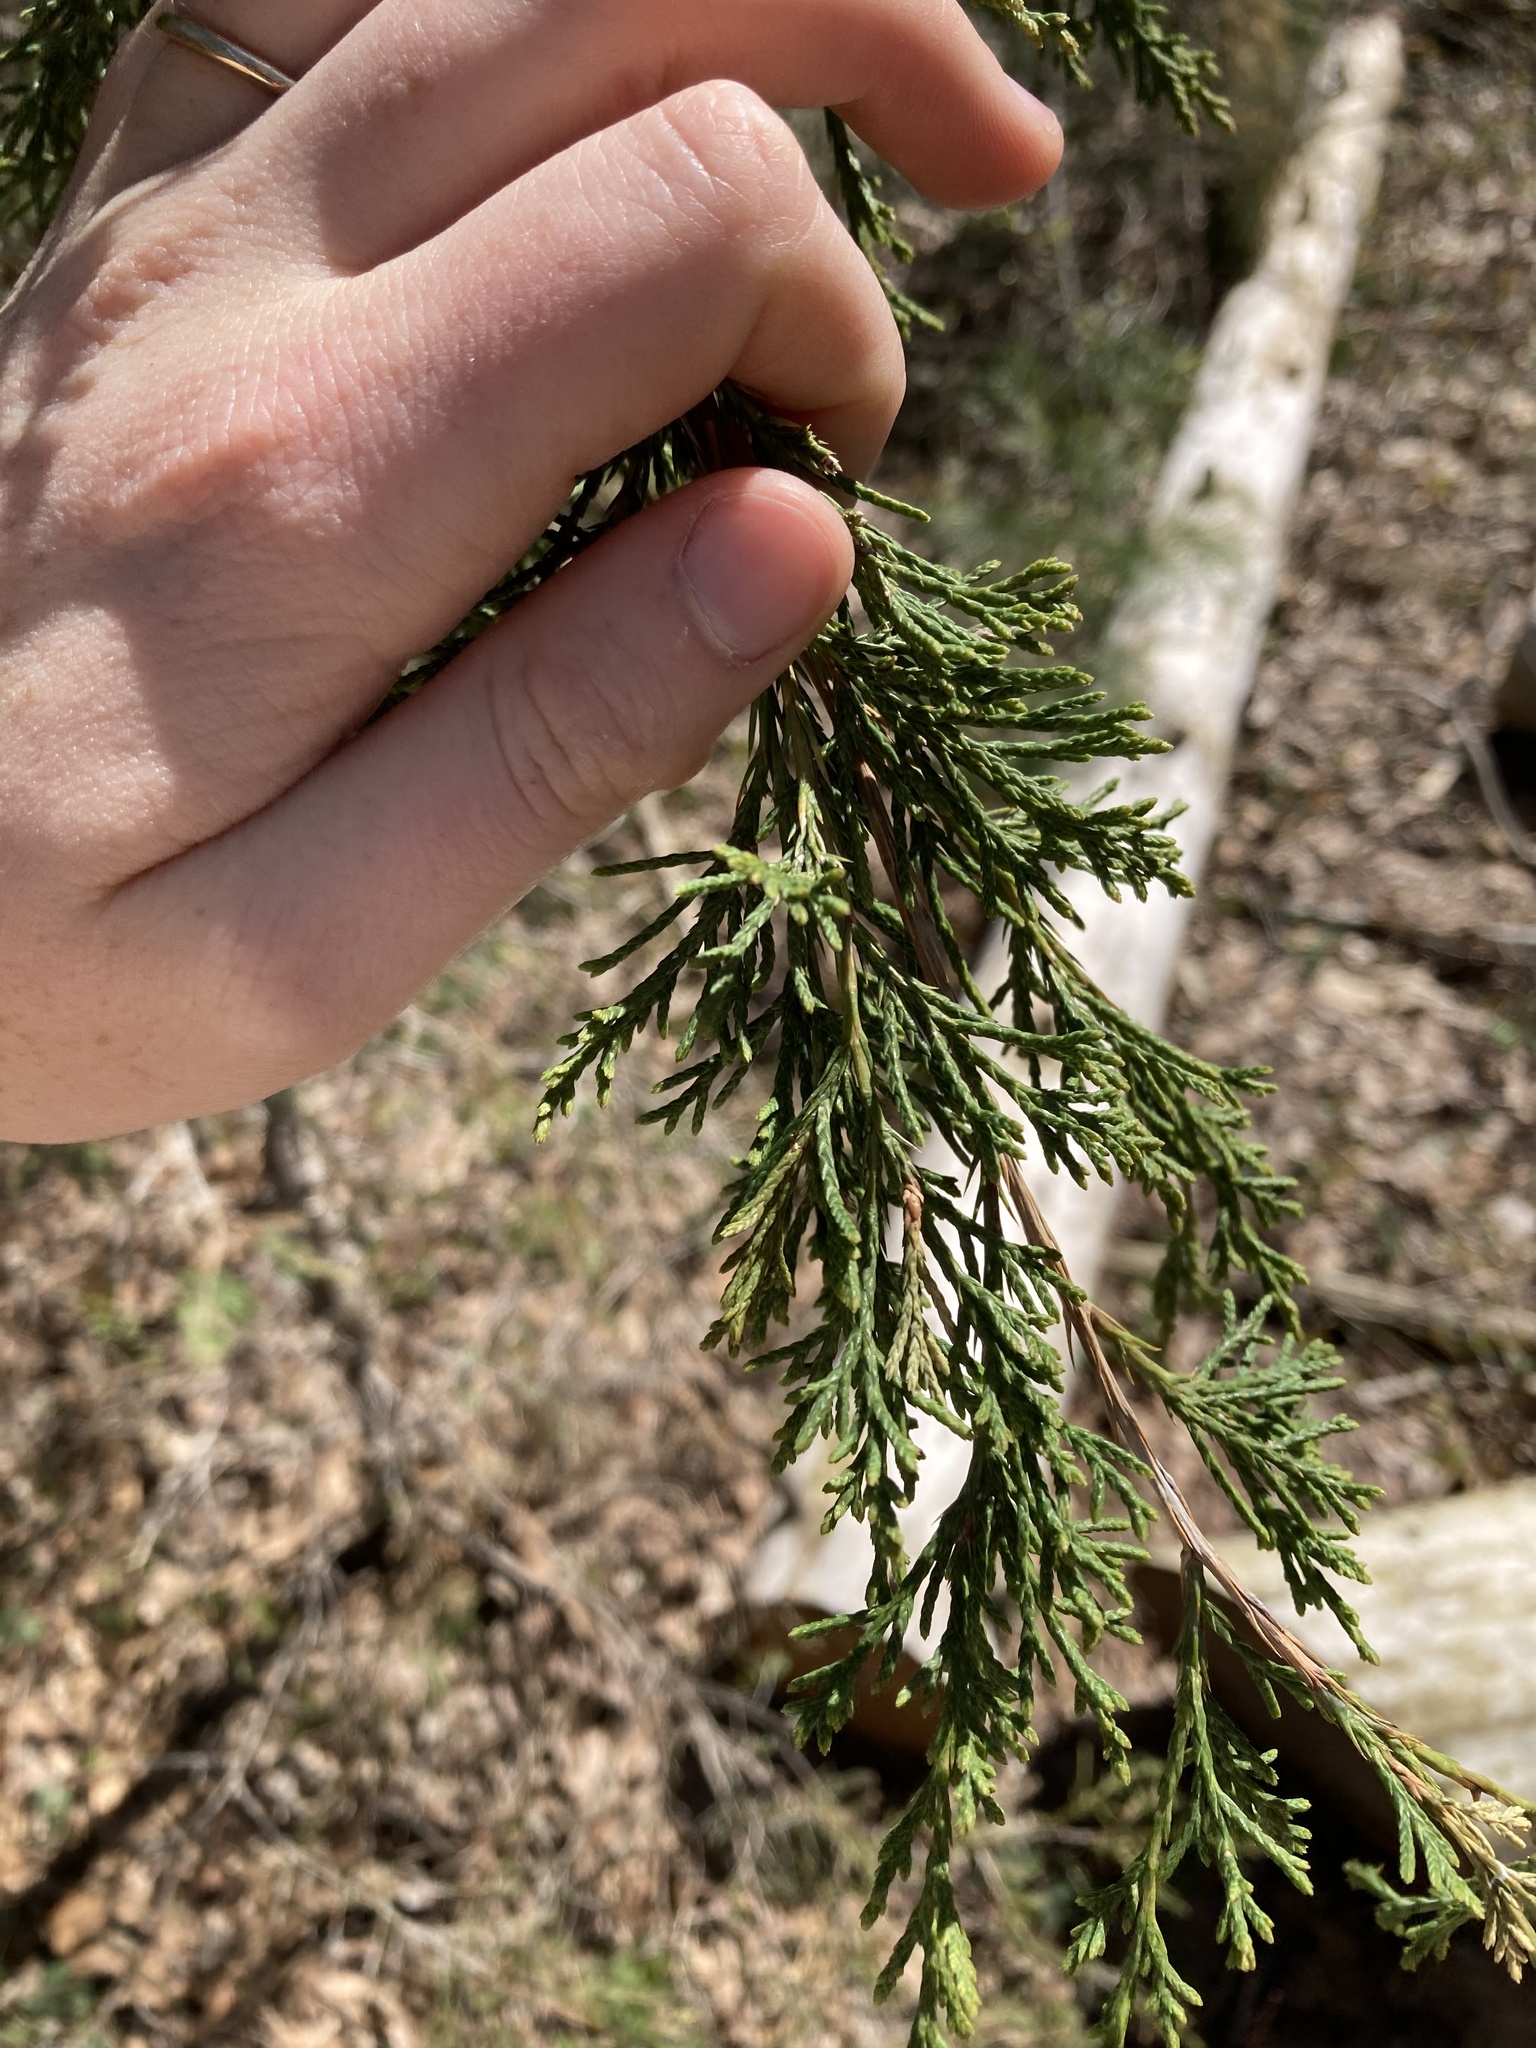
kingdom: Plantae
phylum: Tracheophyta
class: Pinopsida
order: Pinales
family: Cupressaceae
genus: Juniperus
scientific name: Juniperus virginiana
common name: Red juniper
